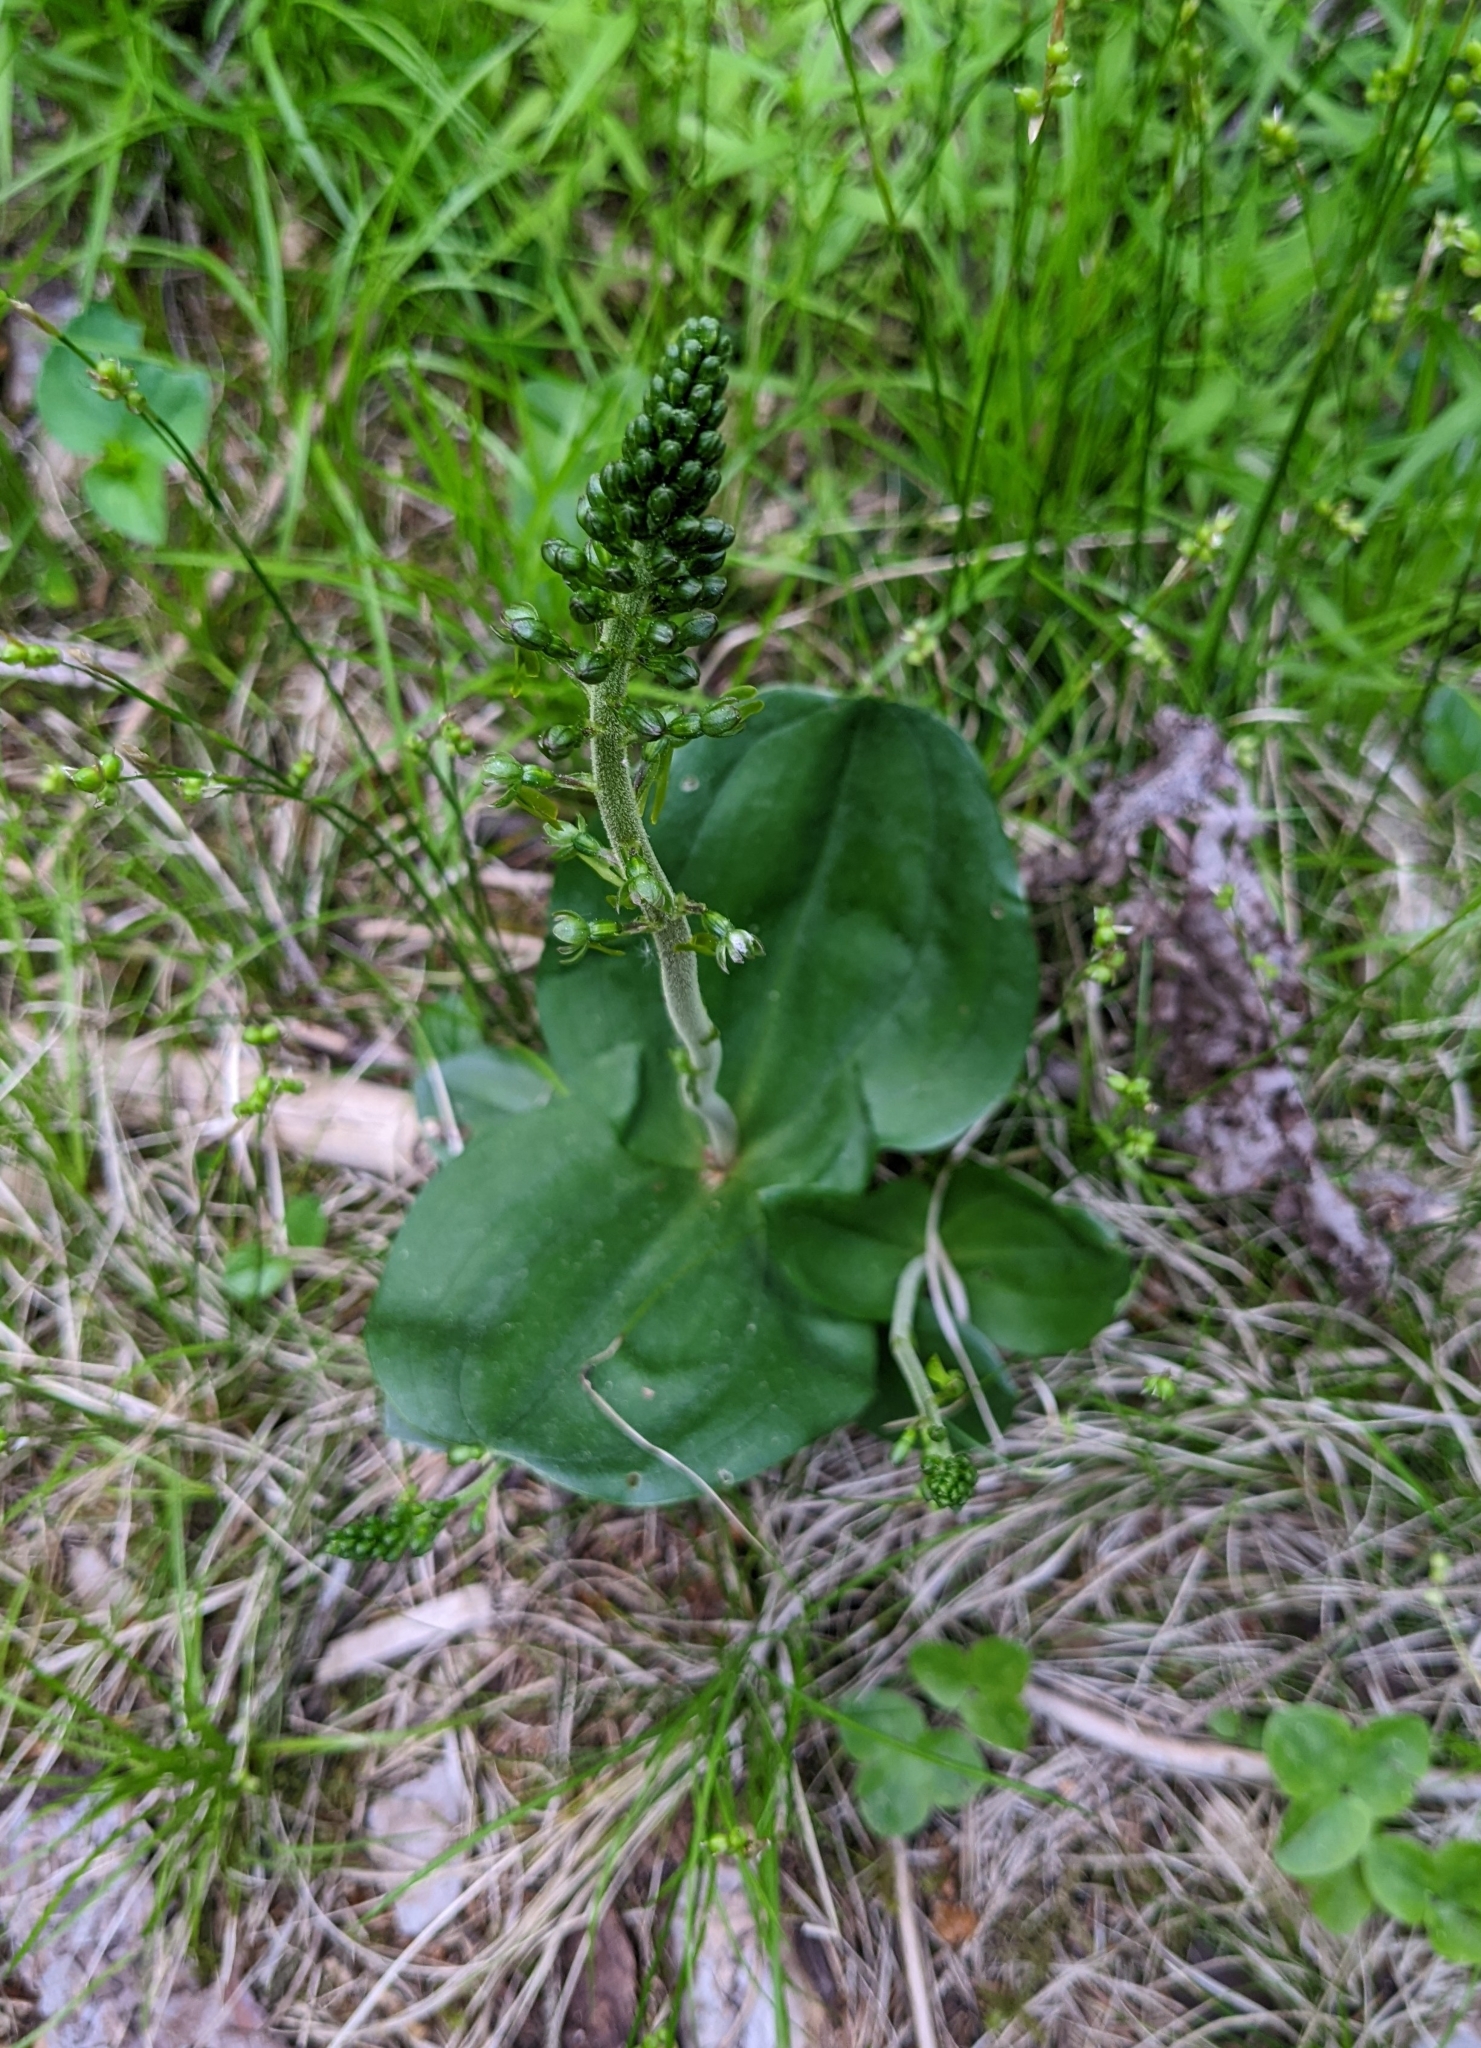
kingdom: Plantae
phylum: Tracheophyta
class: Liliopsida
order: Asparagales
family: Orchidaceae
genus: Neottia
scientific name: Neottia ovata
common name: Common twayblade
